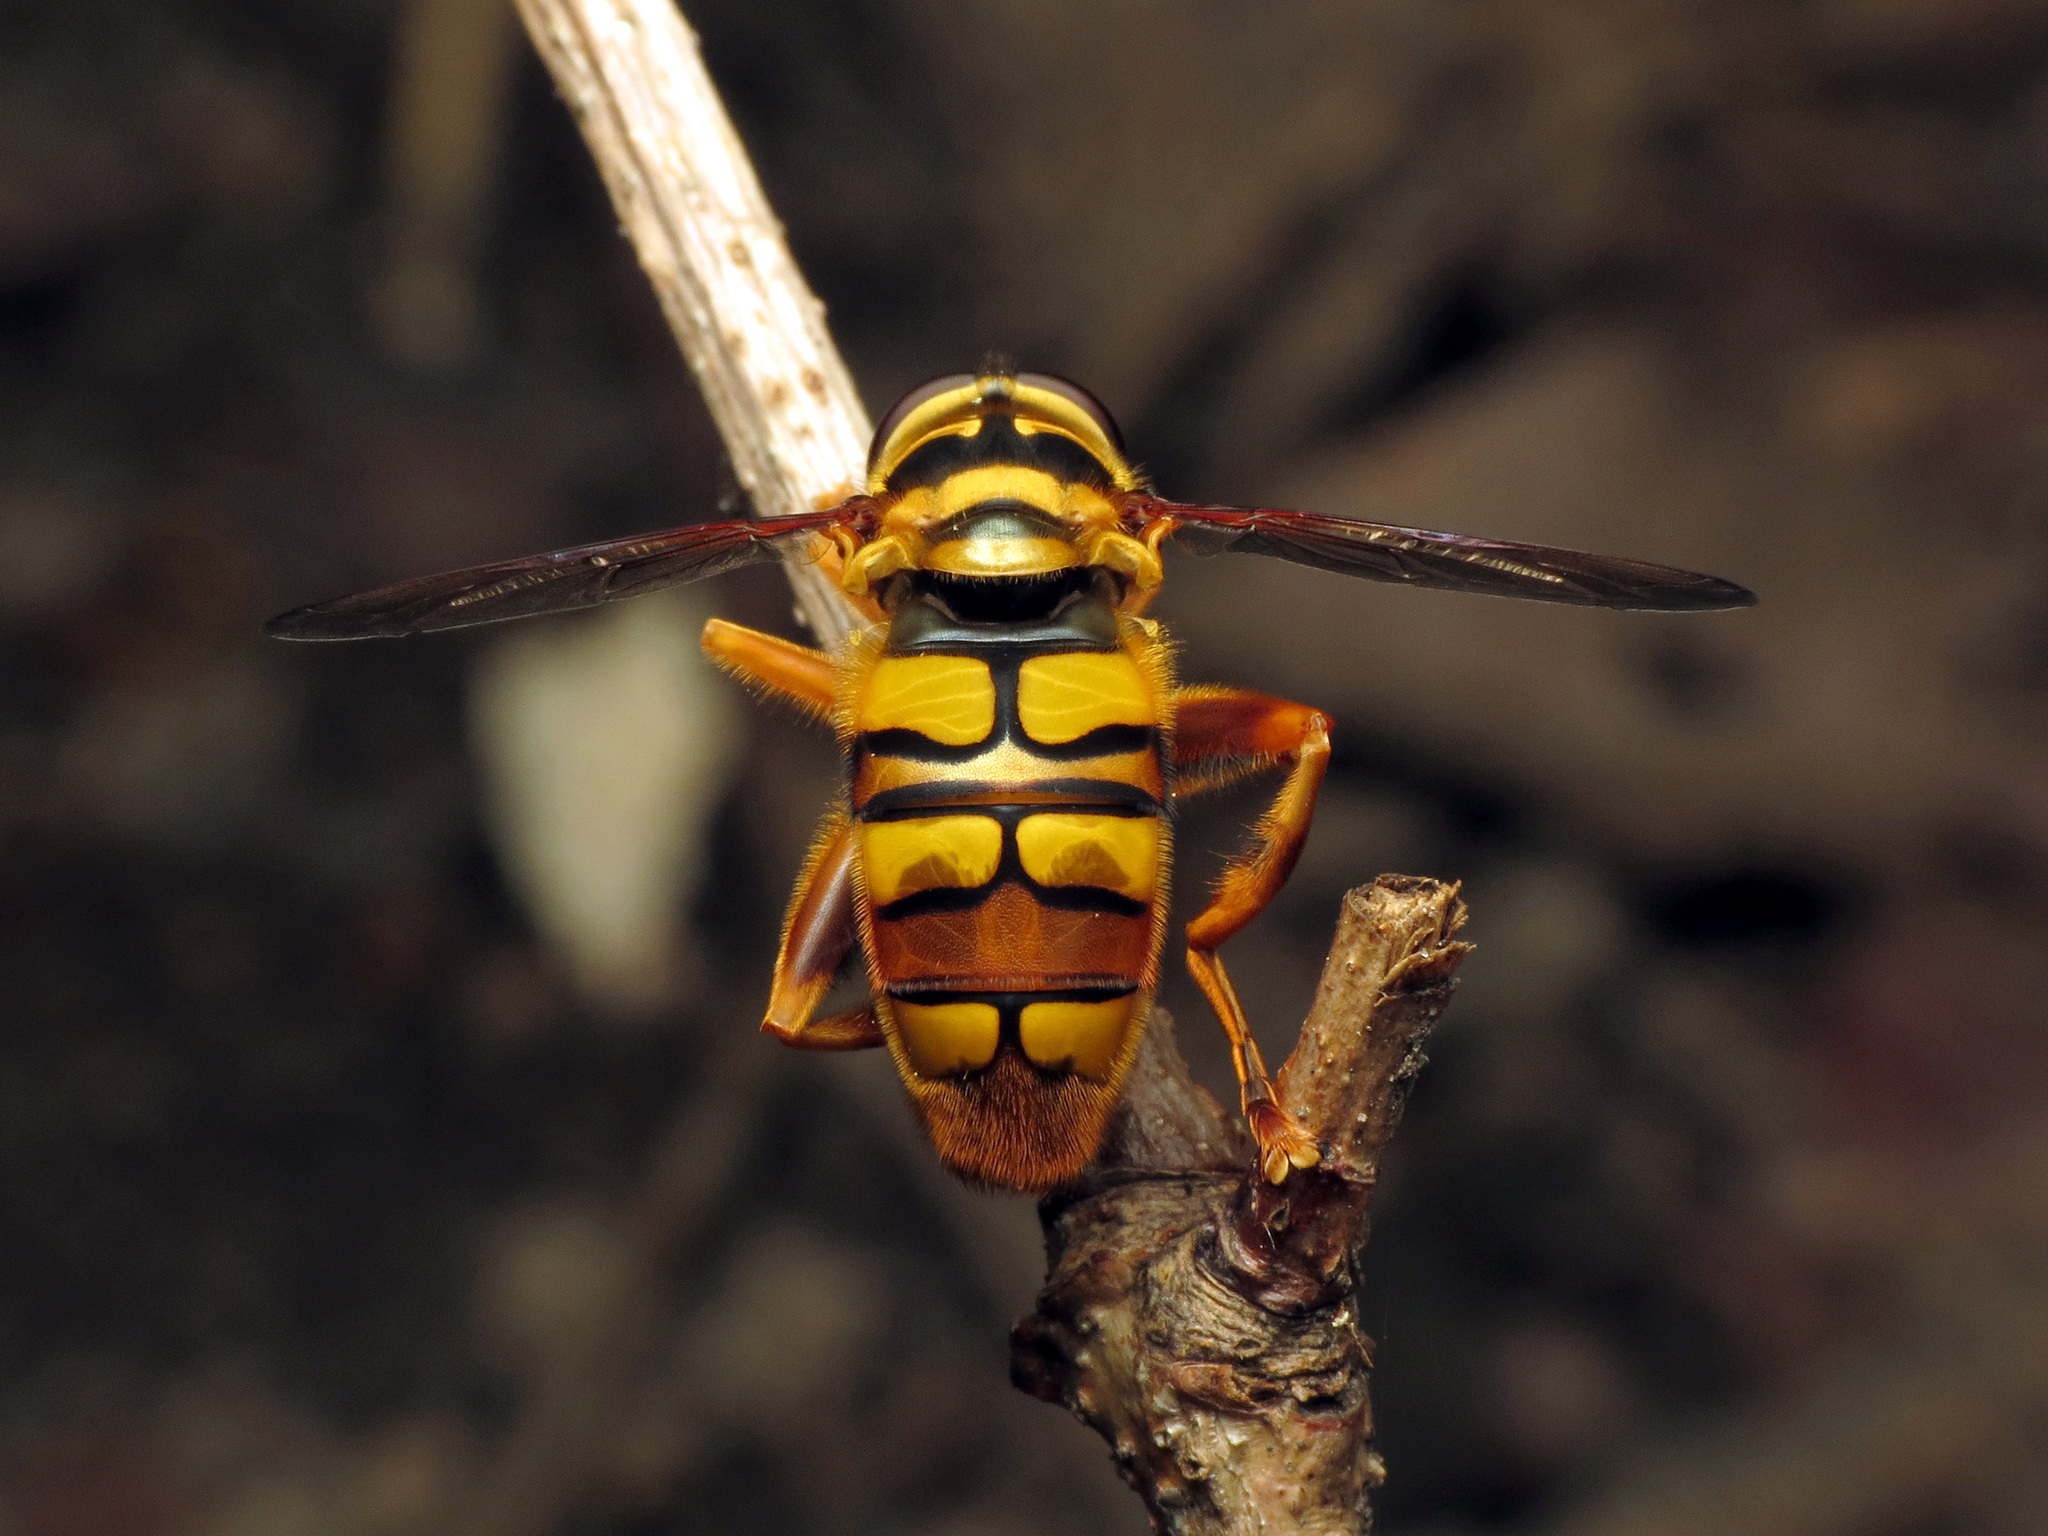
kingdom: Animalia
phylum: Arthropoda
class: Insecta
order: Diptera
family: Syrphidae
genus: Milesia
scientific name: Milesia virginiensis
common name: Virginia giant
